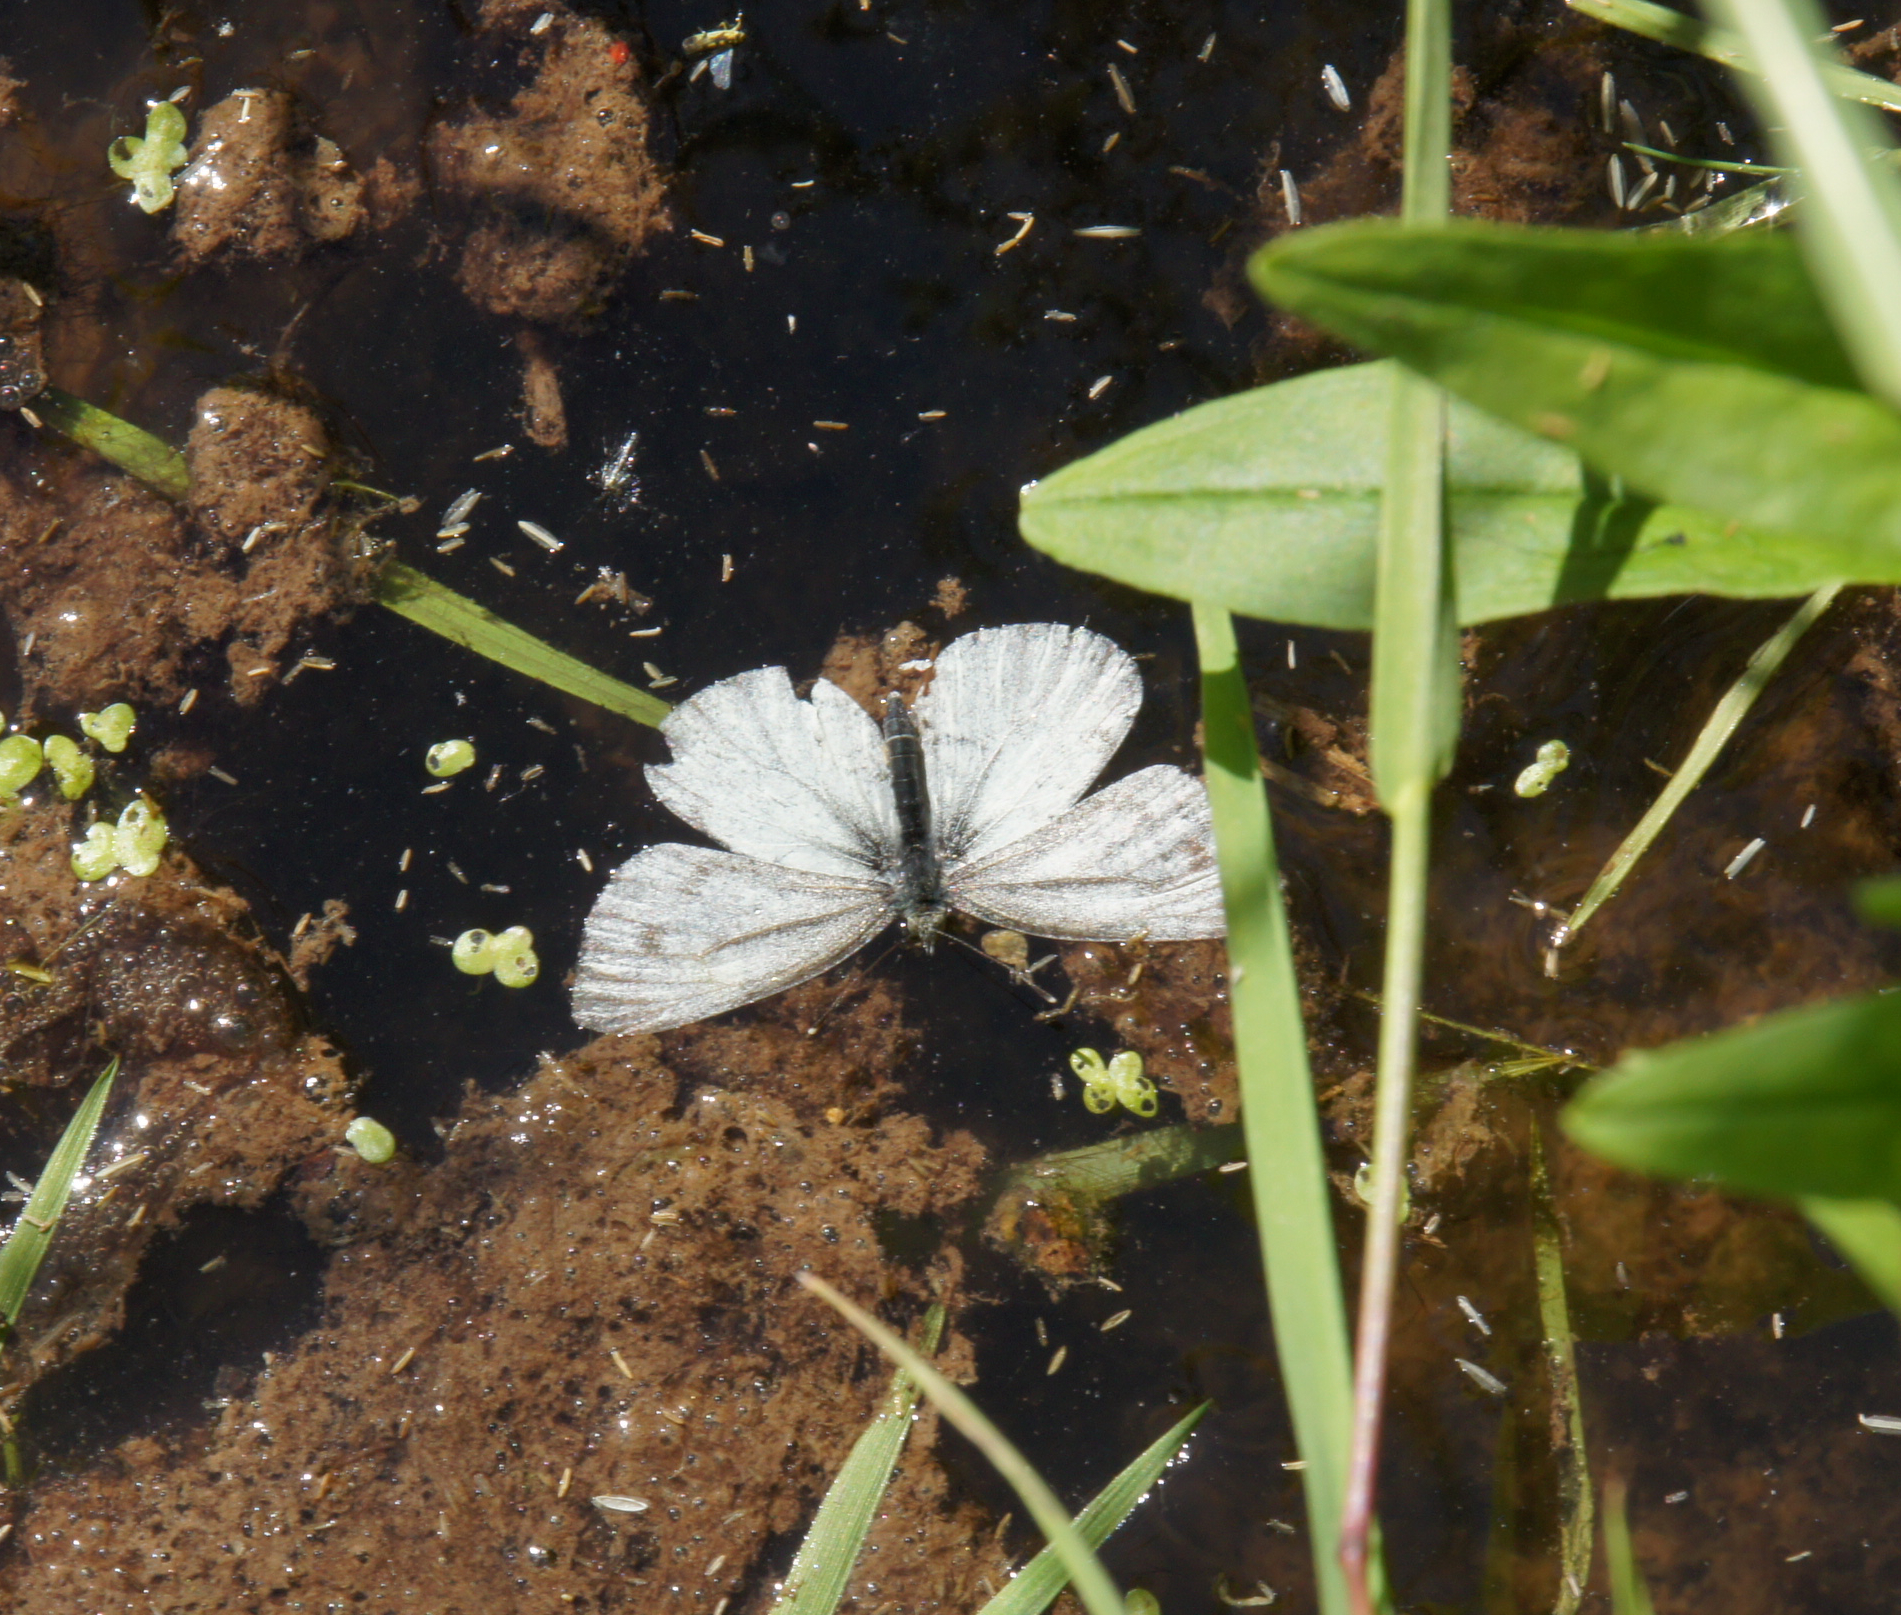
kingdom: Animalia
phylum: Arthropoda
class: Insecta
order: Lepidoptera
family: Pieridae
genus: Pieris
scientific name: Pieris napi
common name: Green-veined white
